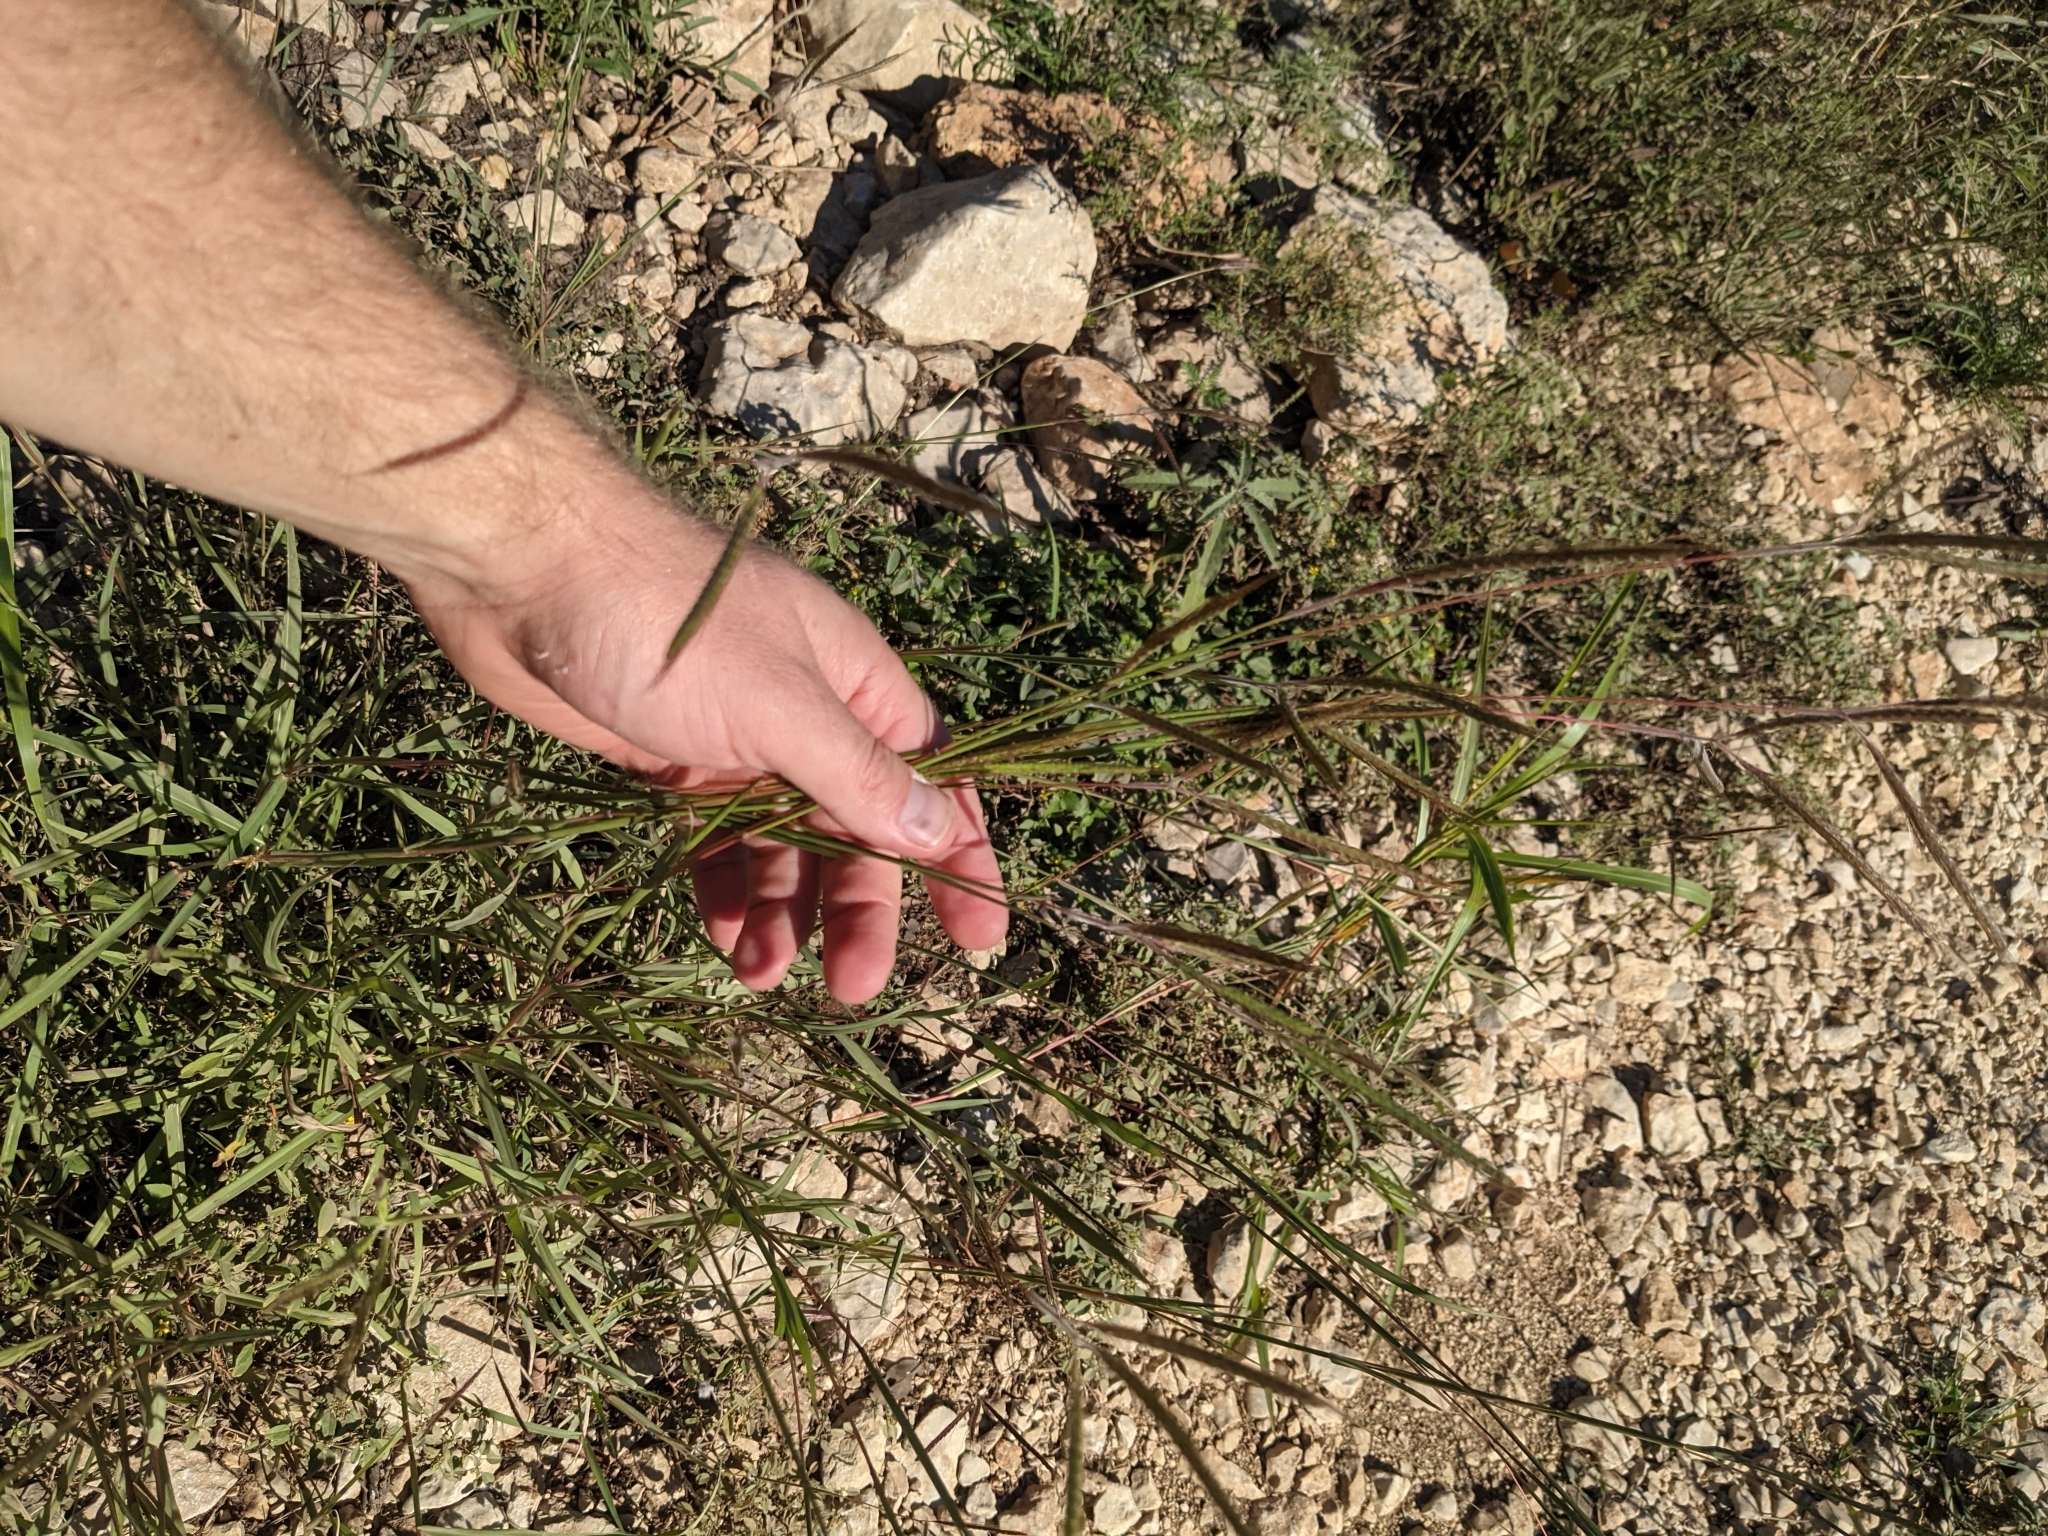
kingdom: Plantae
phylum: Tracheophyta
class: Liliopsida
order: Poales
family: Poaceae
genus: Dichanthium
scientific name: Dichanthium aristatum
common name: Angleton bluestem
